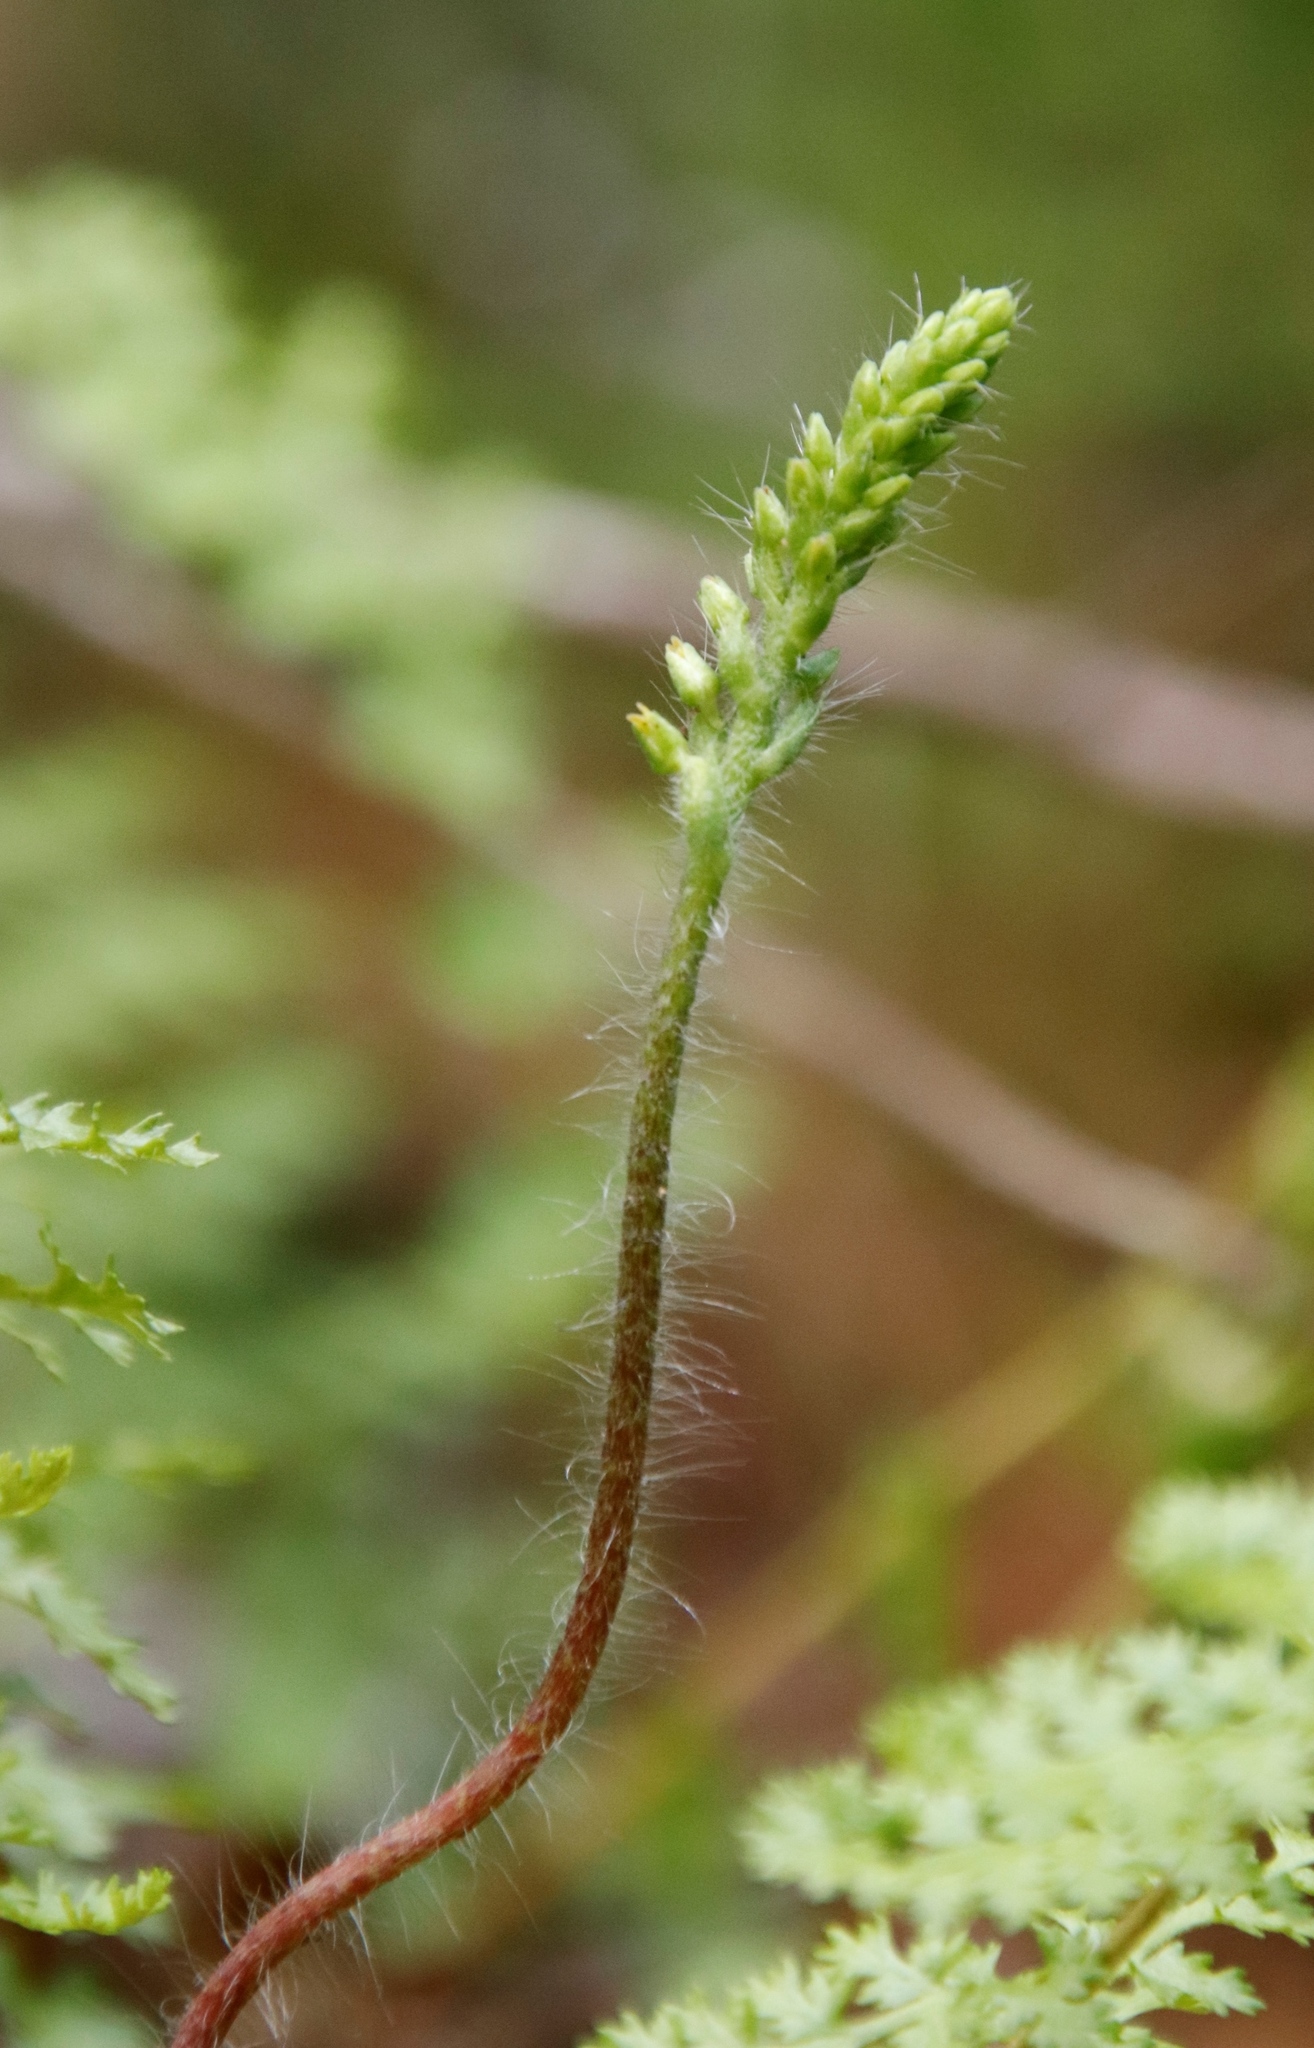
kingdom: Plantae
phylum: Tracheophyta
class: Liliopsida
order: Asparagales
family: Orchidaceae
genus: Holothrix
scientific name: Holothrix villosa
